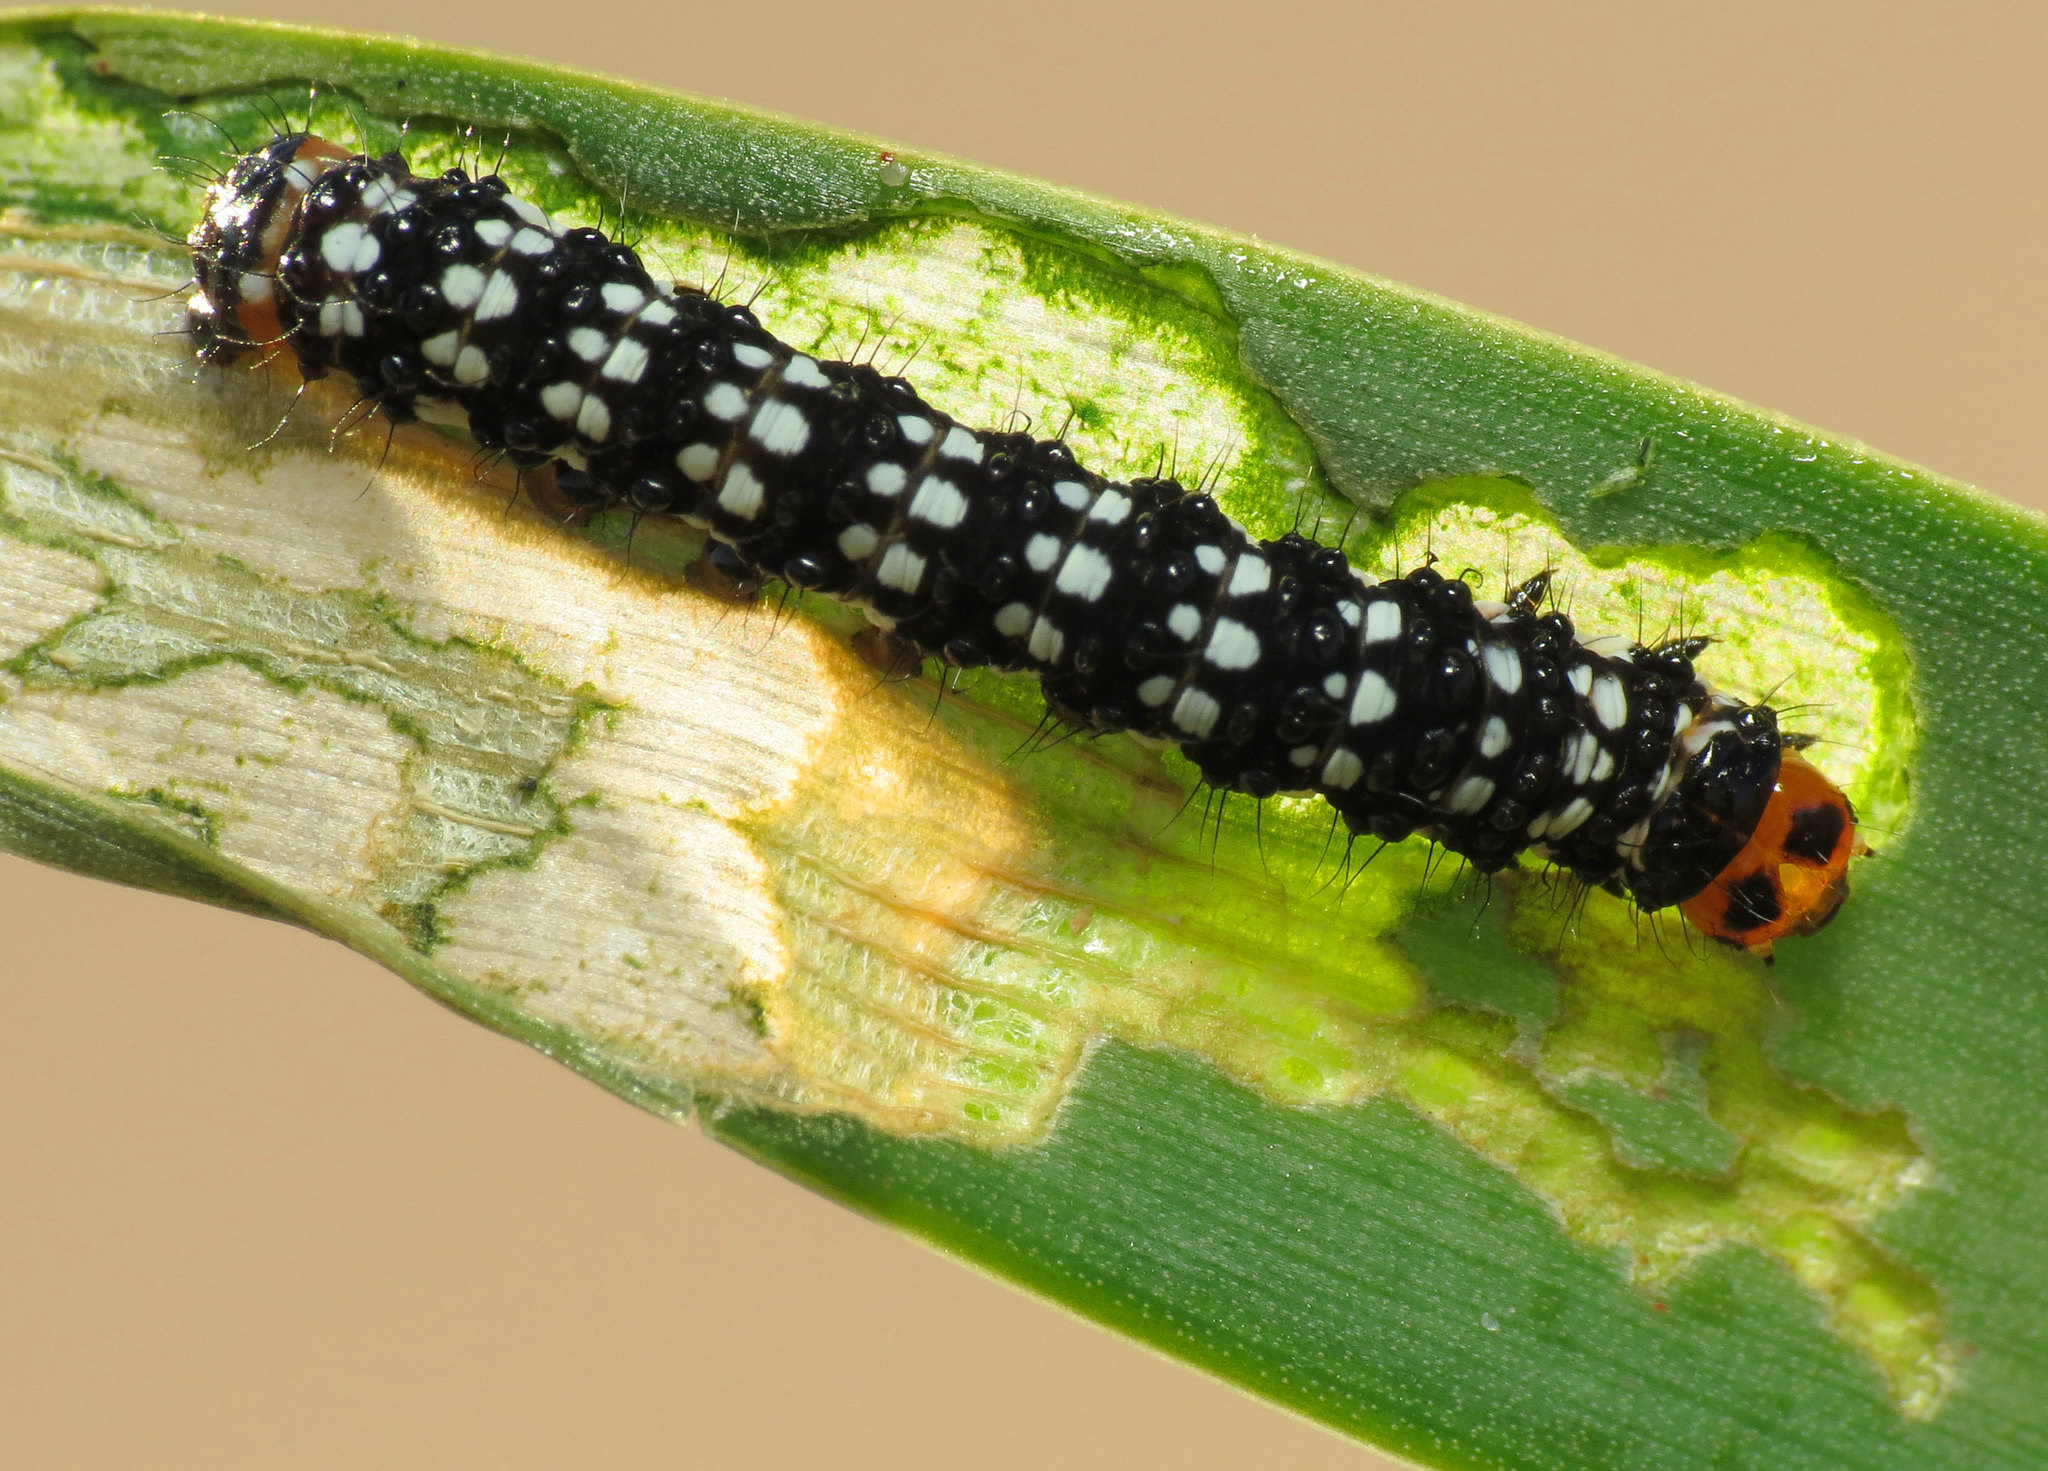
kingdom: Animalia
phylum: Arthropoda
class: Insecta
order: Lepidoptera
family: Noctuidae
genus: Brithys
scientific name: Brithys crini
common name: Kew arches
